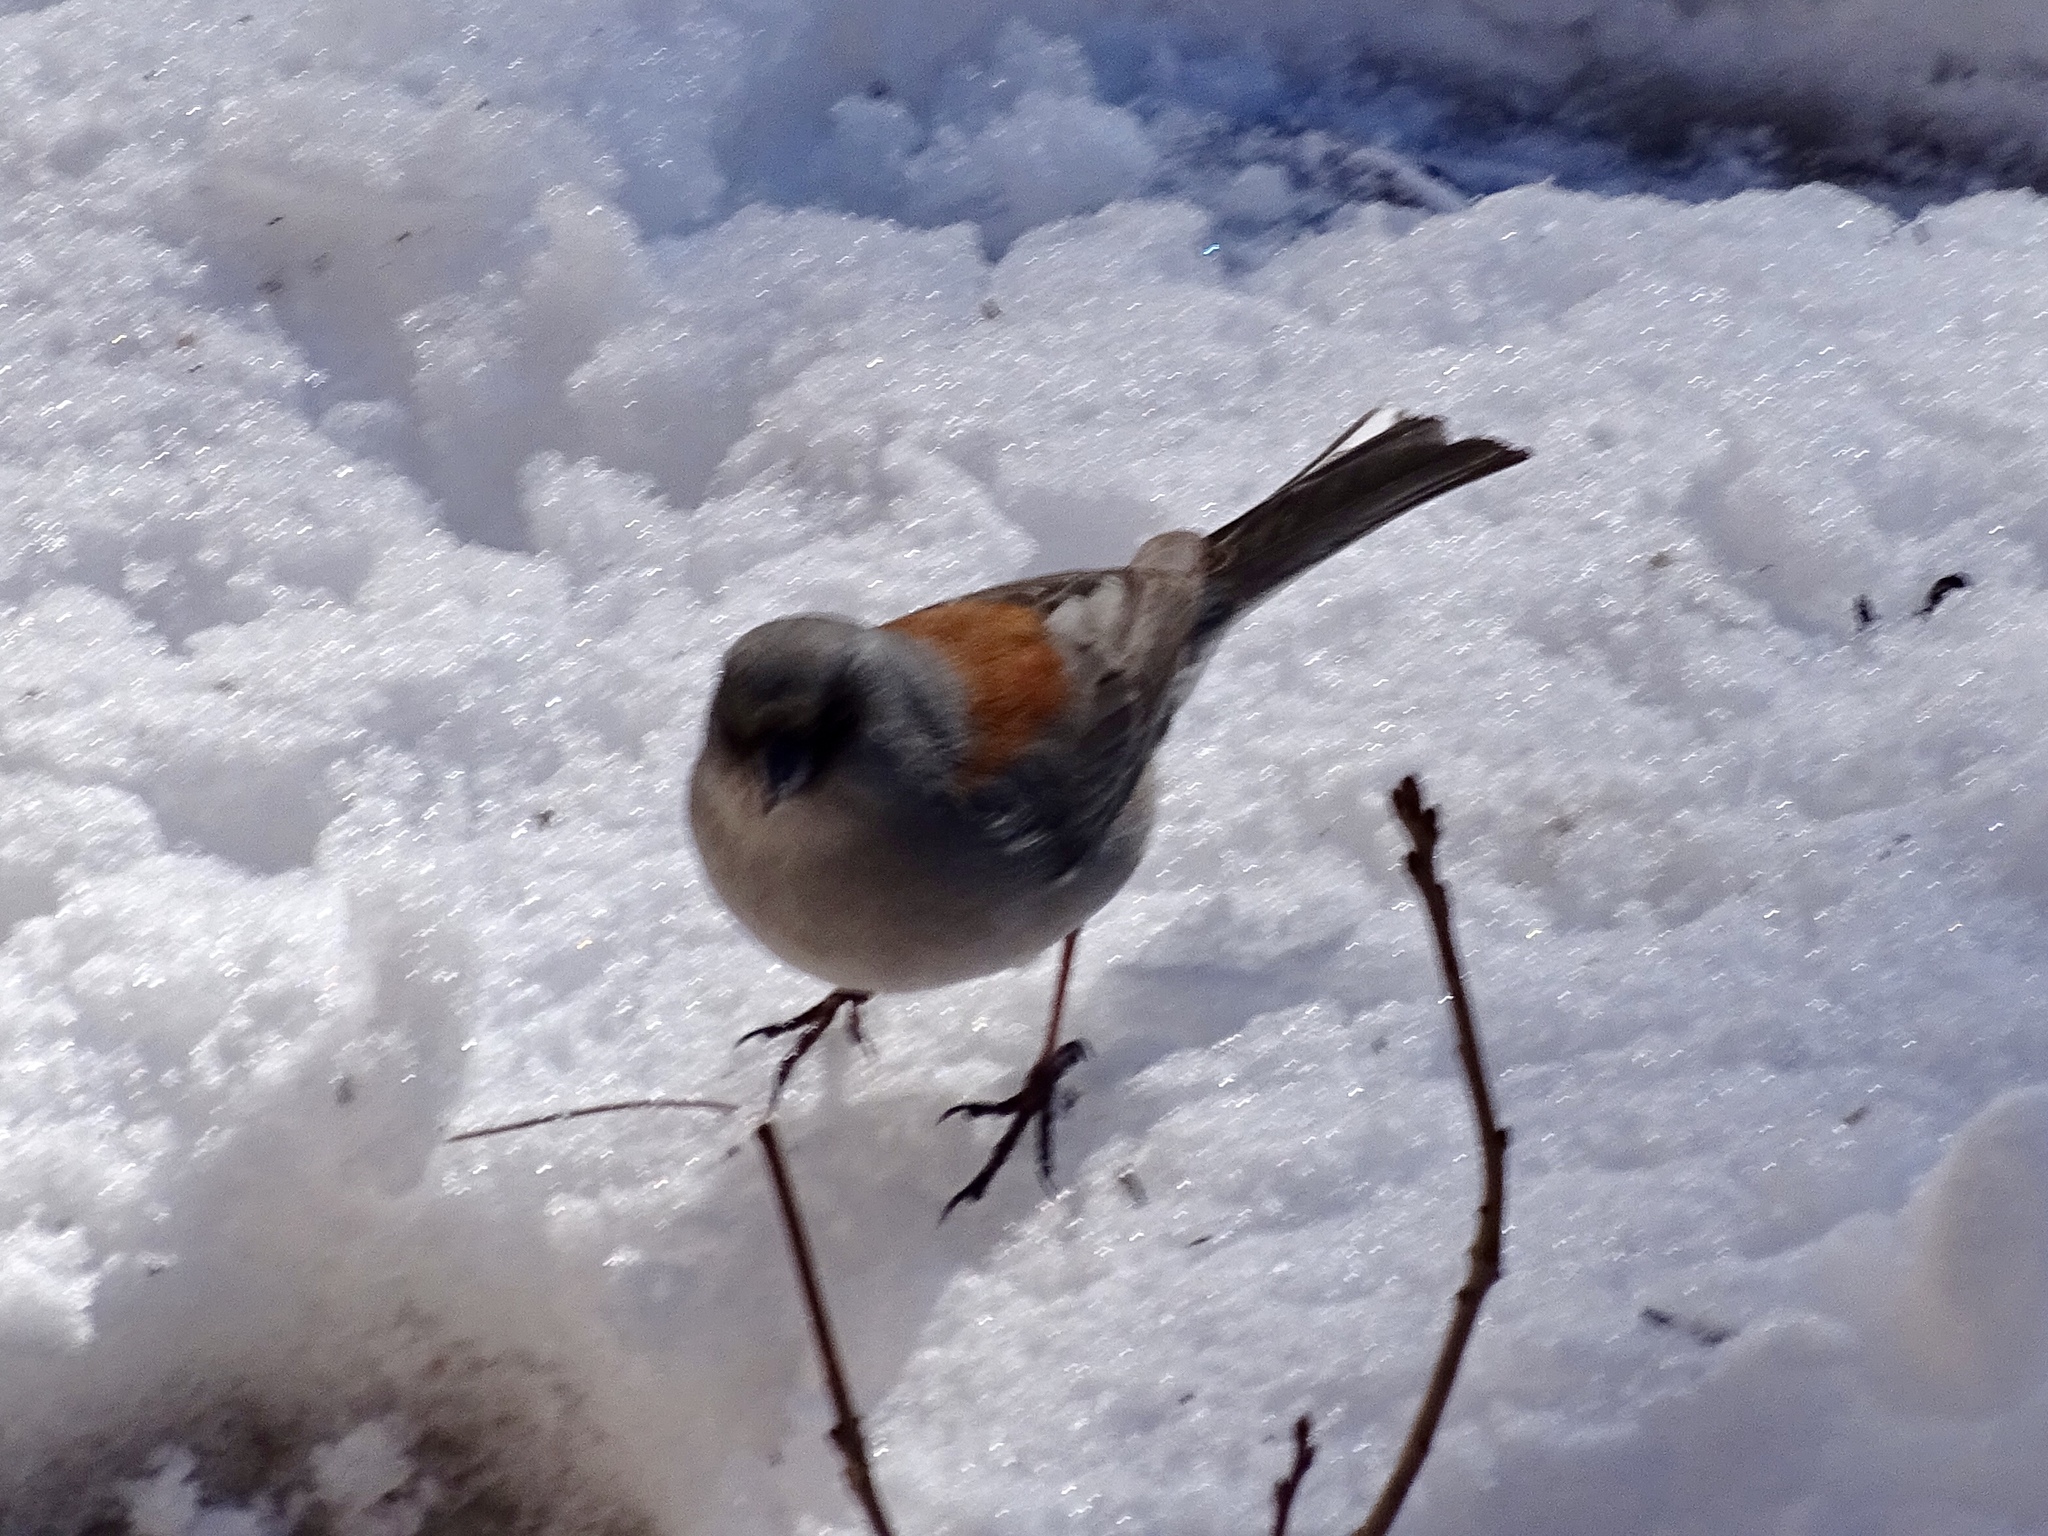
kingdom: Animalia
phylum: Chordata
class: Aves
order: Passeriformes
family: Passerellidae
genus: Junco
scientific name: Junco hyemalis
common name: Dark-eyed junco
